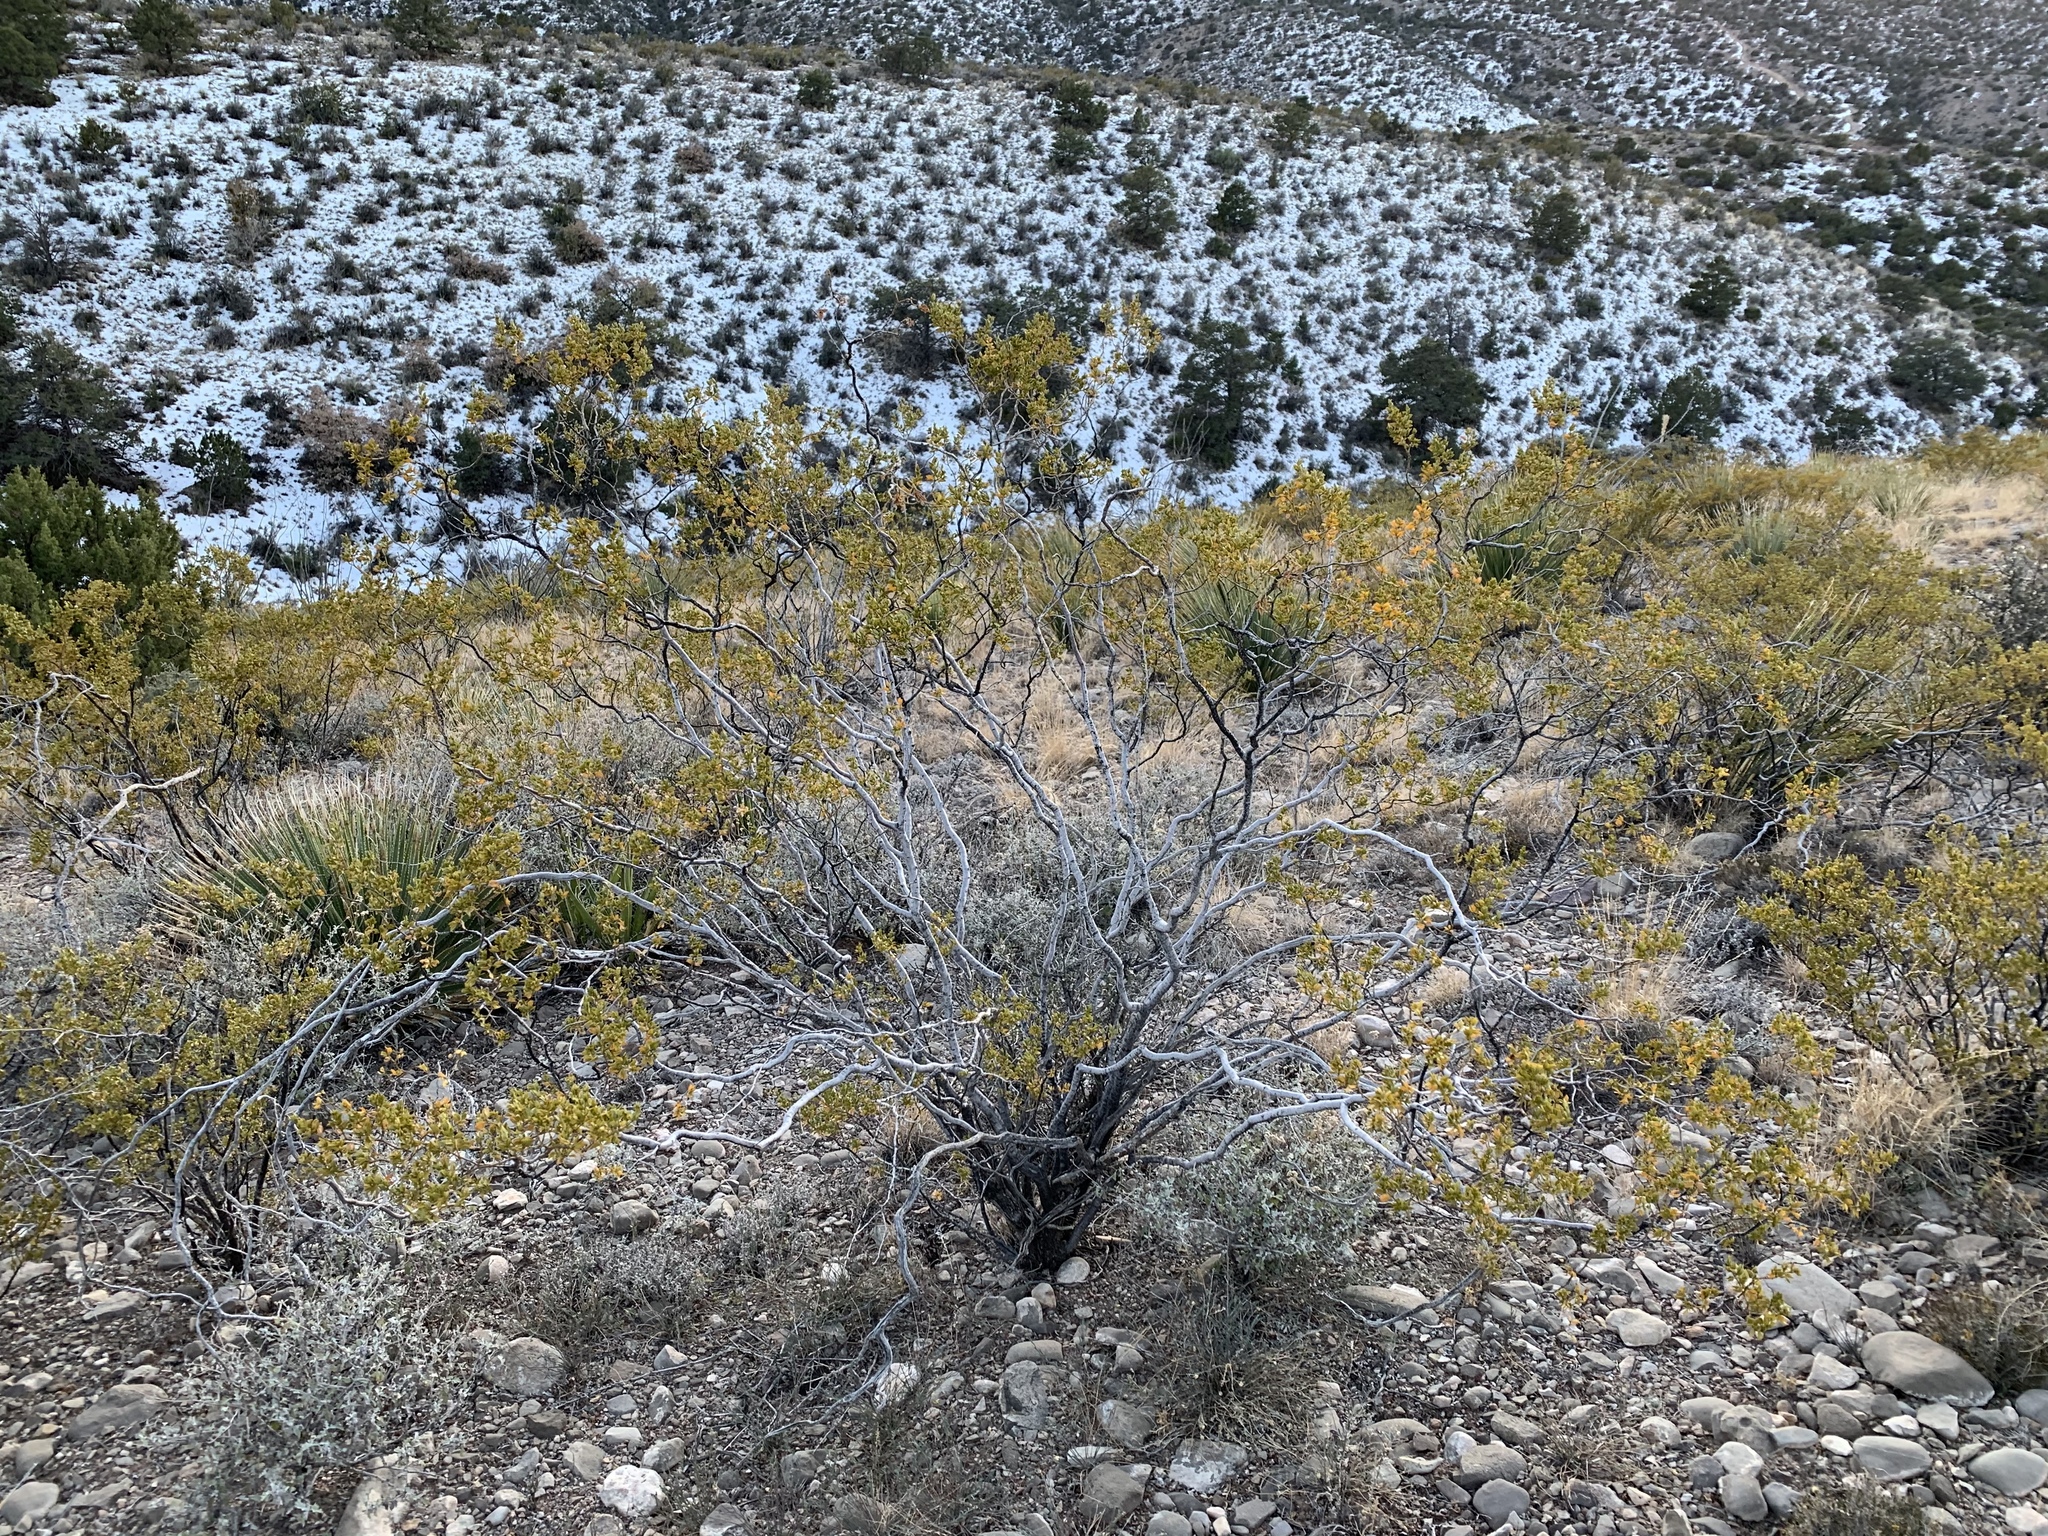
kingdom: Plantae
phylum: Tracheophyta
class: Magnoliopsida
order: Zygophyllales
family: Zygophyllaceae
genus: Larrea
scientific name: Larrea tridentata
